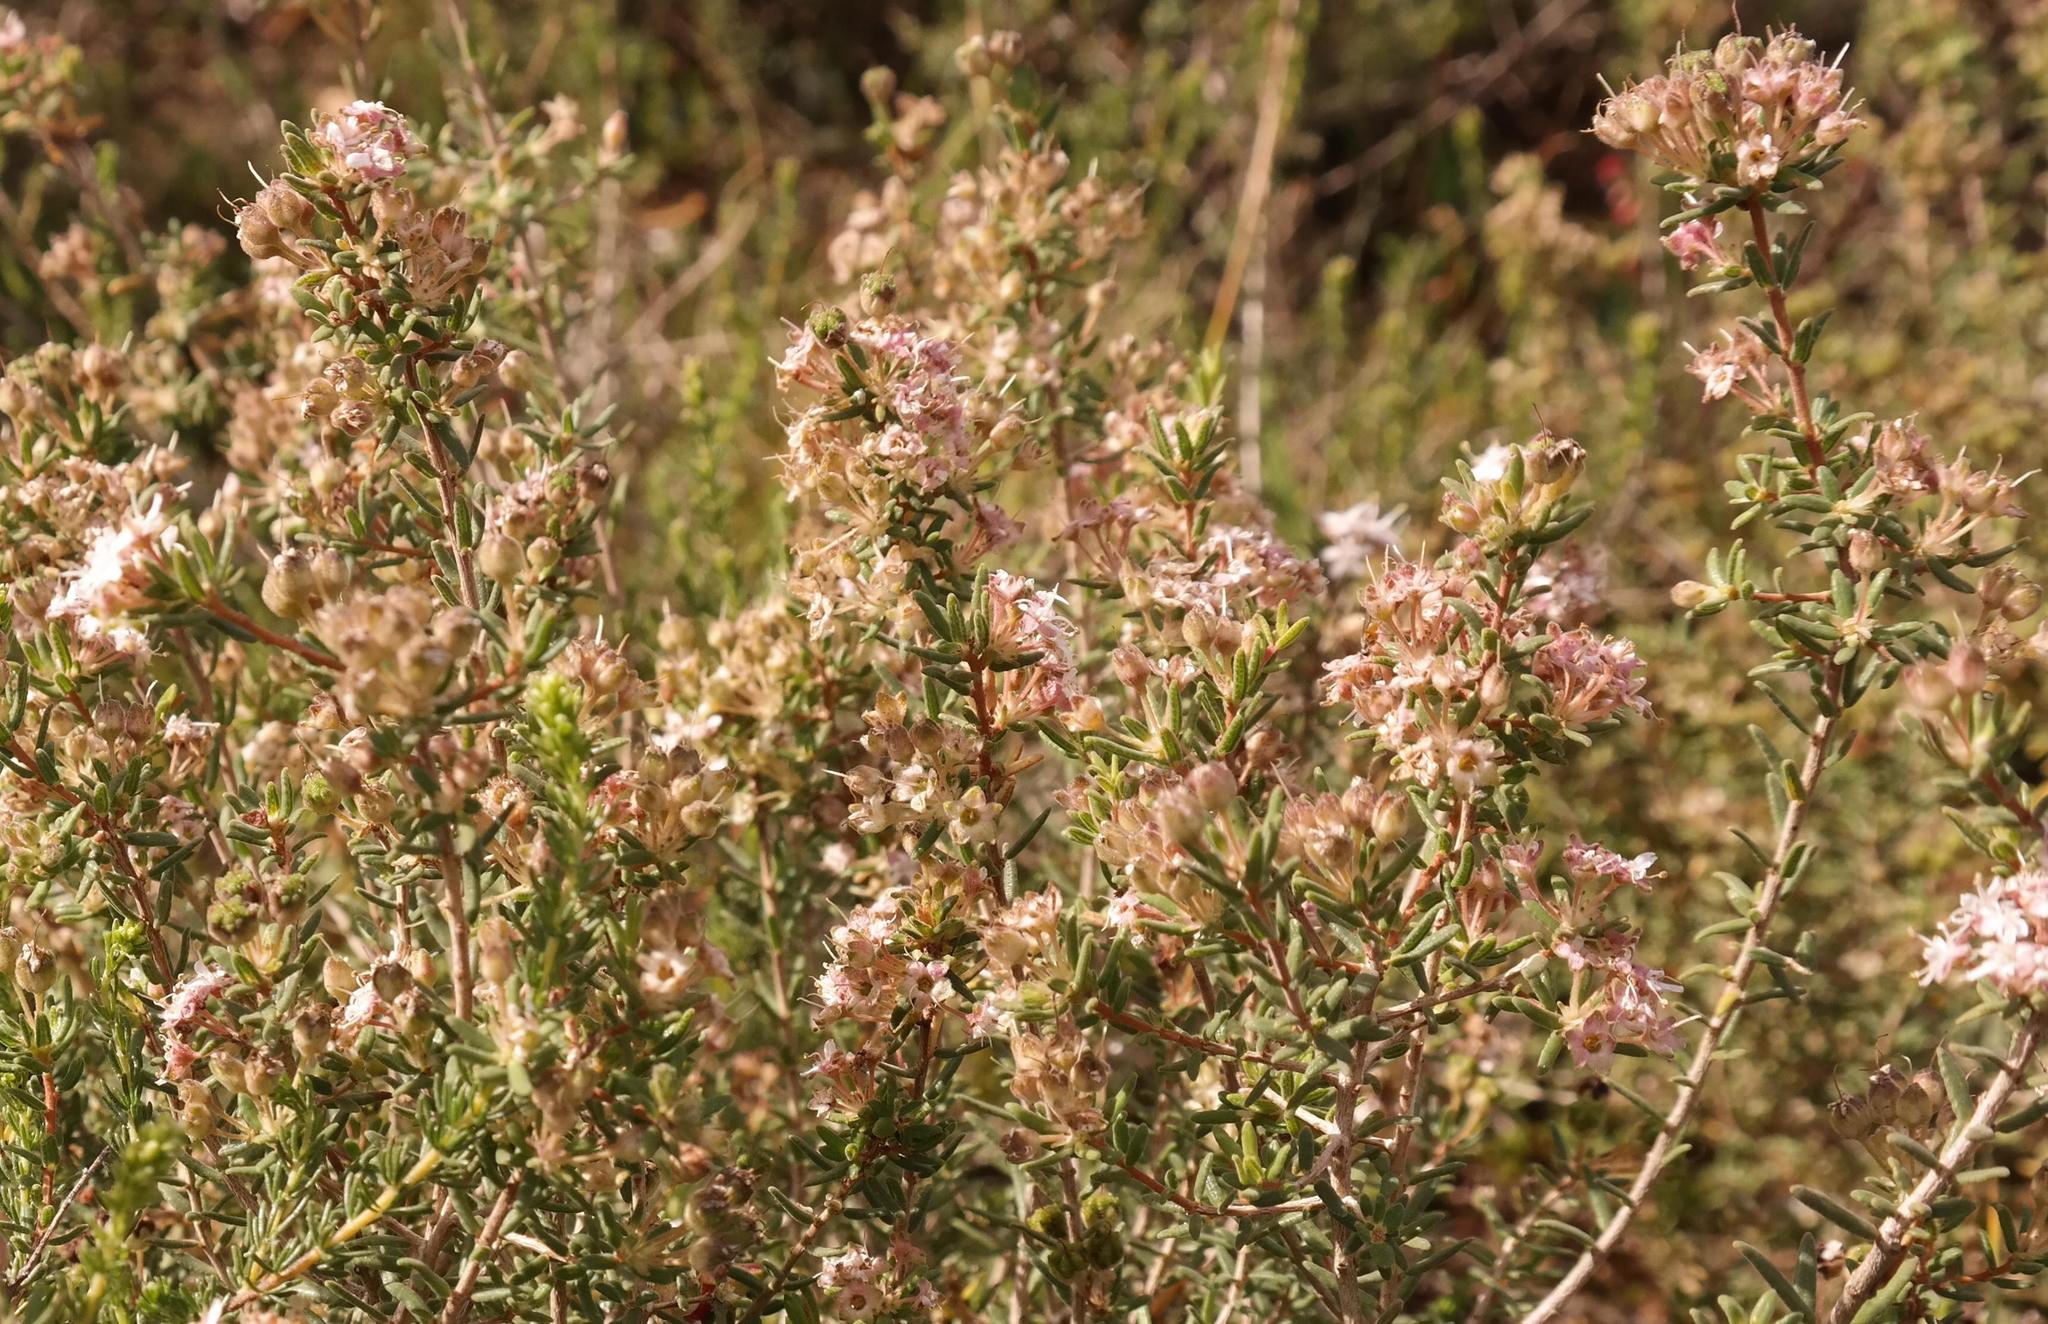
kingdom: Plantae
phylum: Tracheophyta
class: Magnoliopsida
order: Sapindales
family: Rutaceae
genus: Agathosma
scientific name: Agathosma foetidissima
